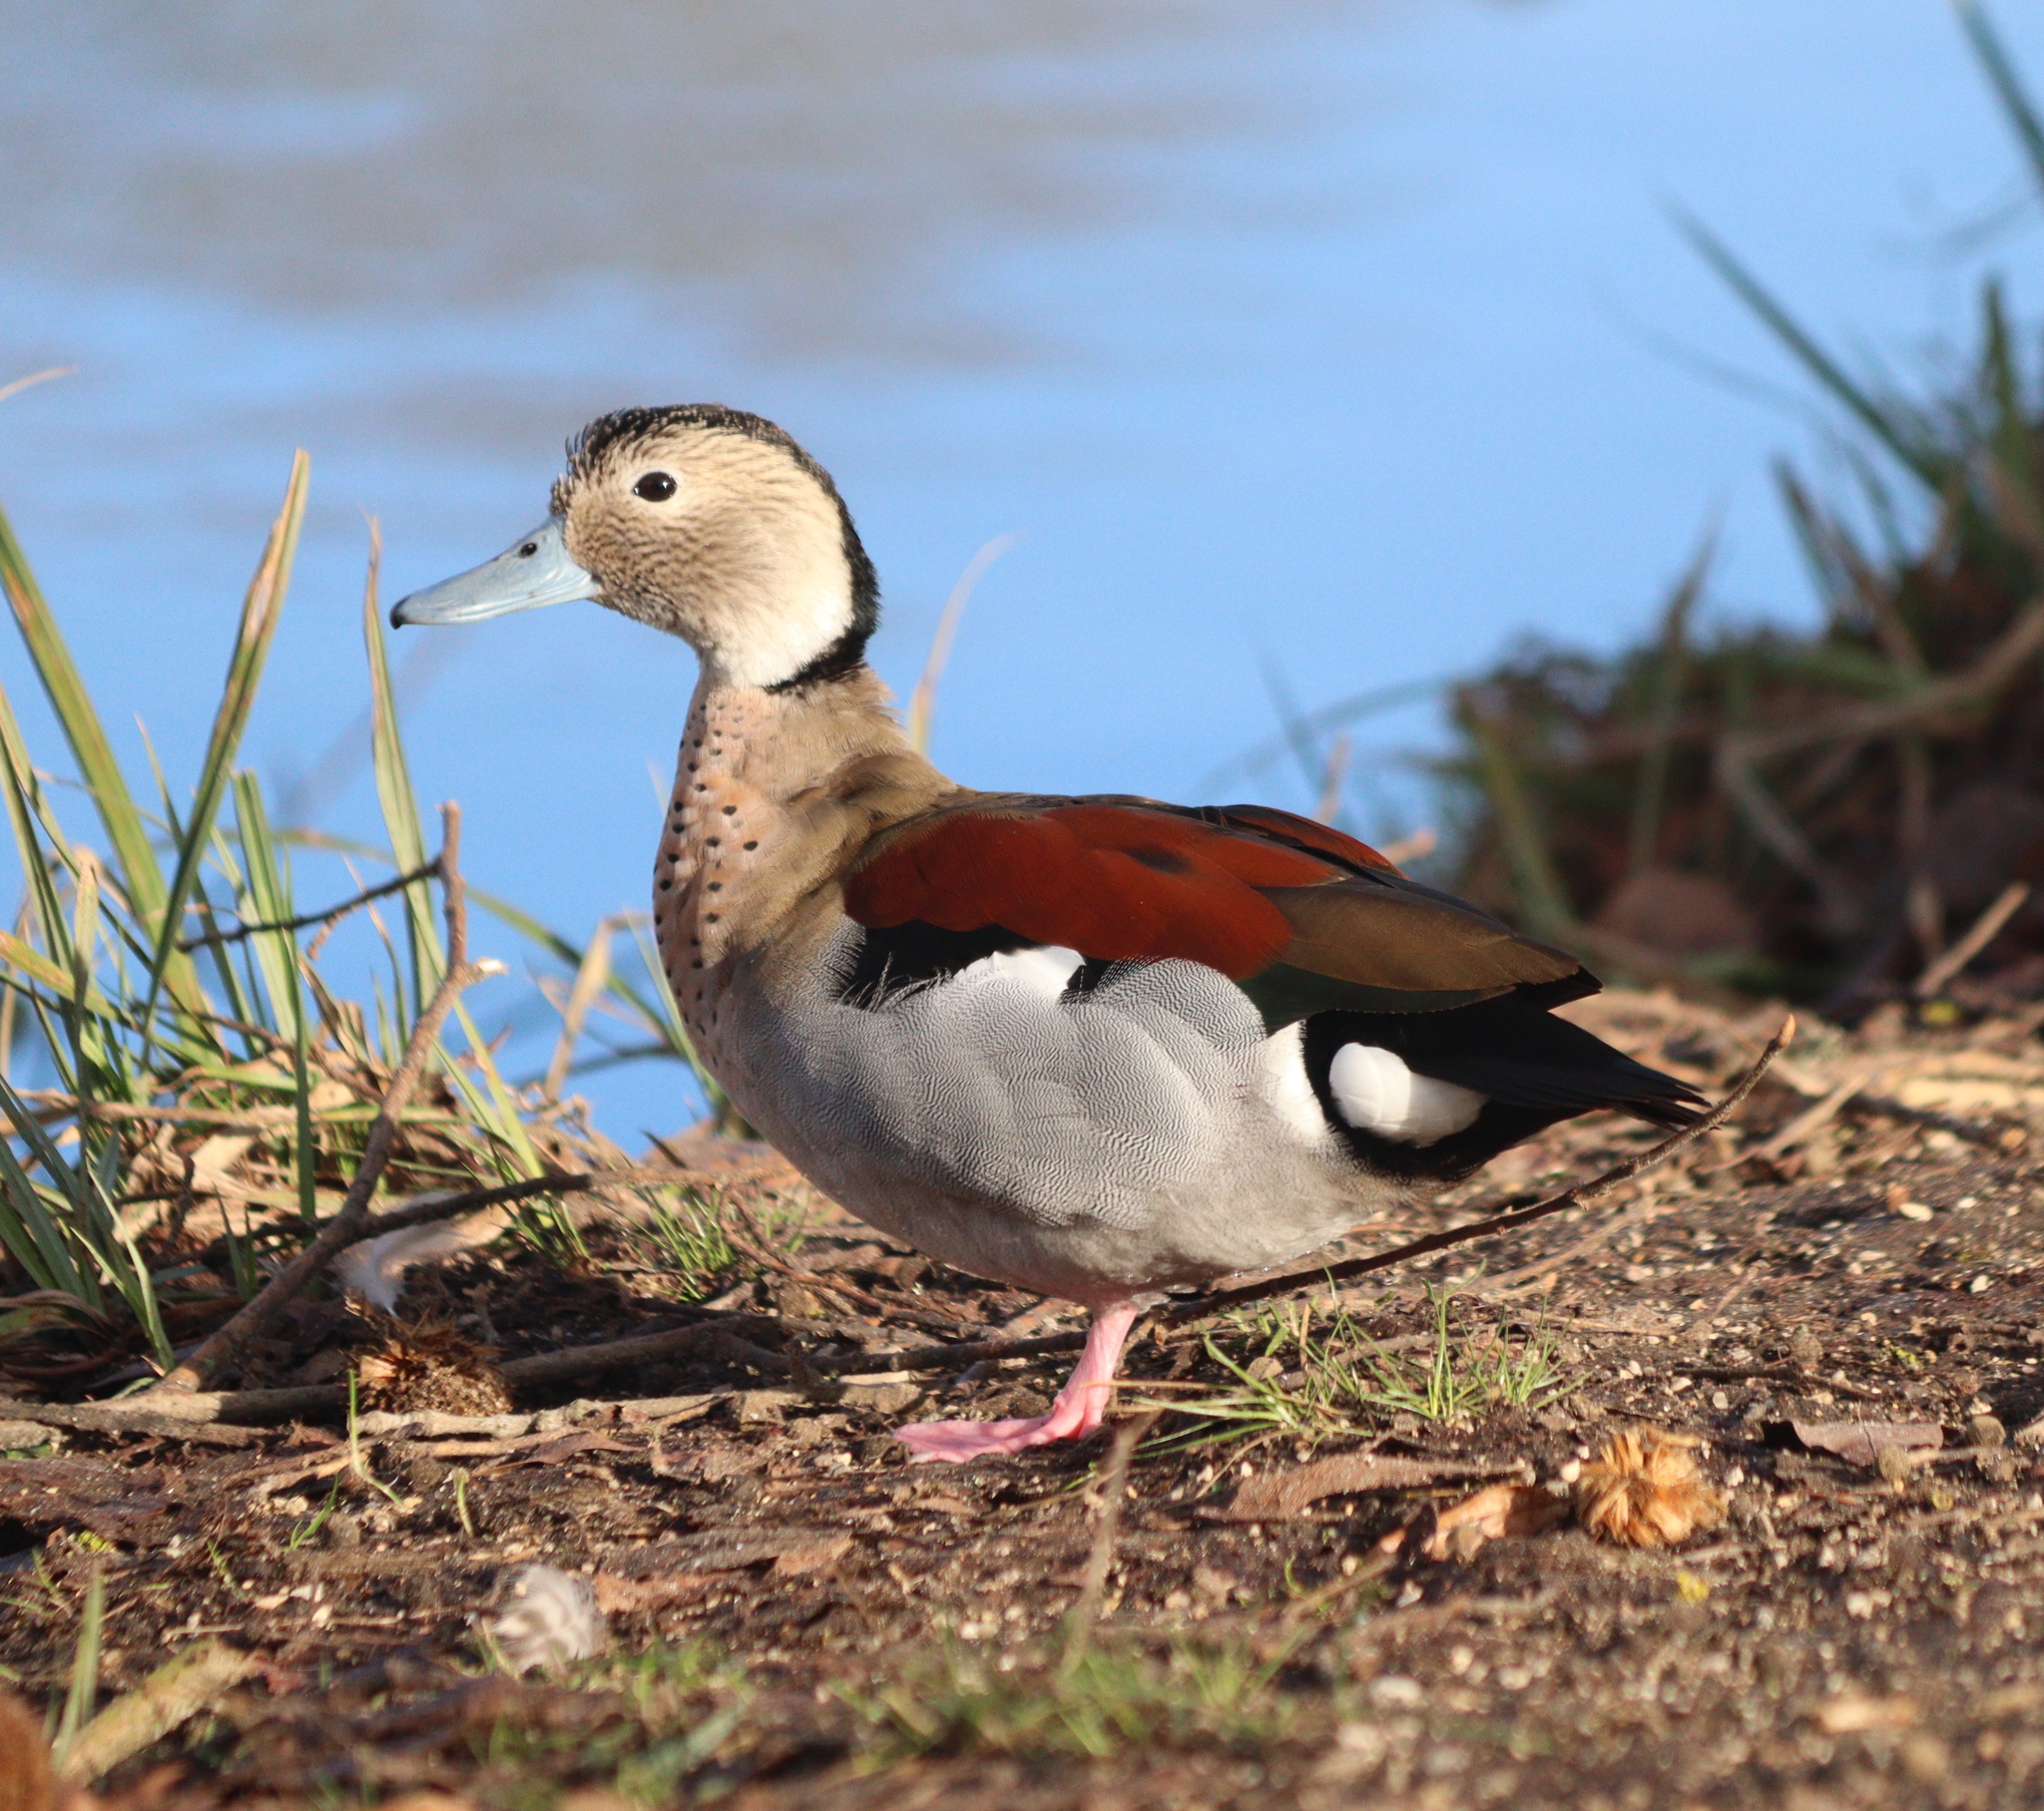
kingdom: Animalia
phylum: Chordata
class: Aves
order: Anseriformes
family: Anatidae
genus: Callonetta
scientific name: Callonetta leucophrys
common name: Ringed teal
